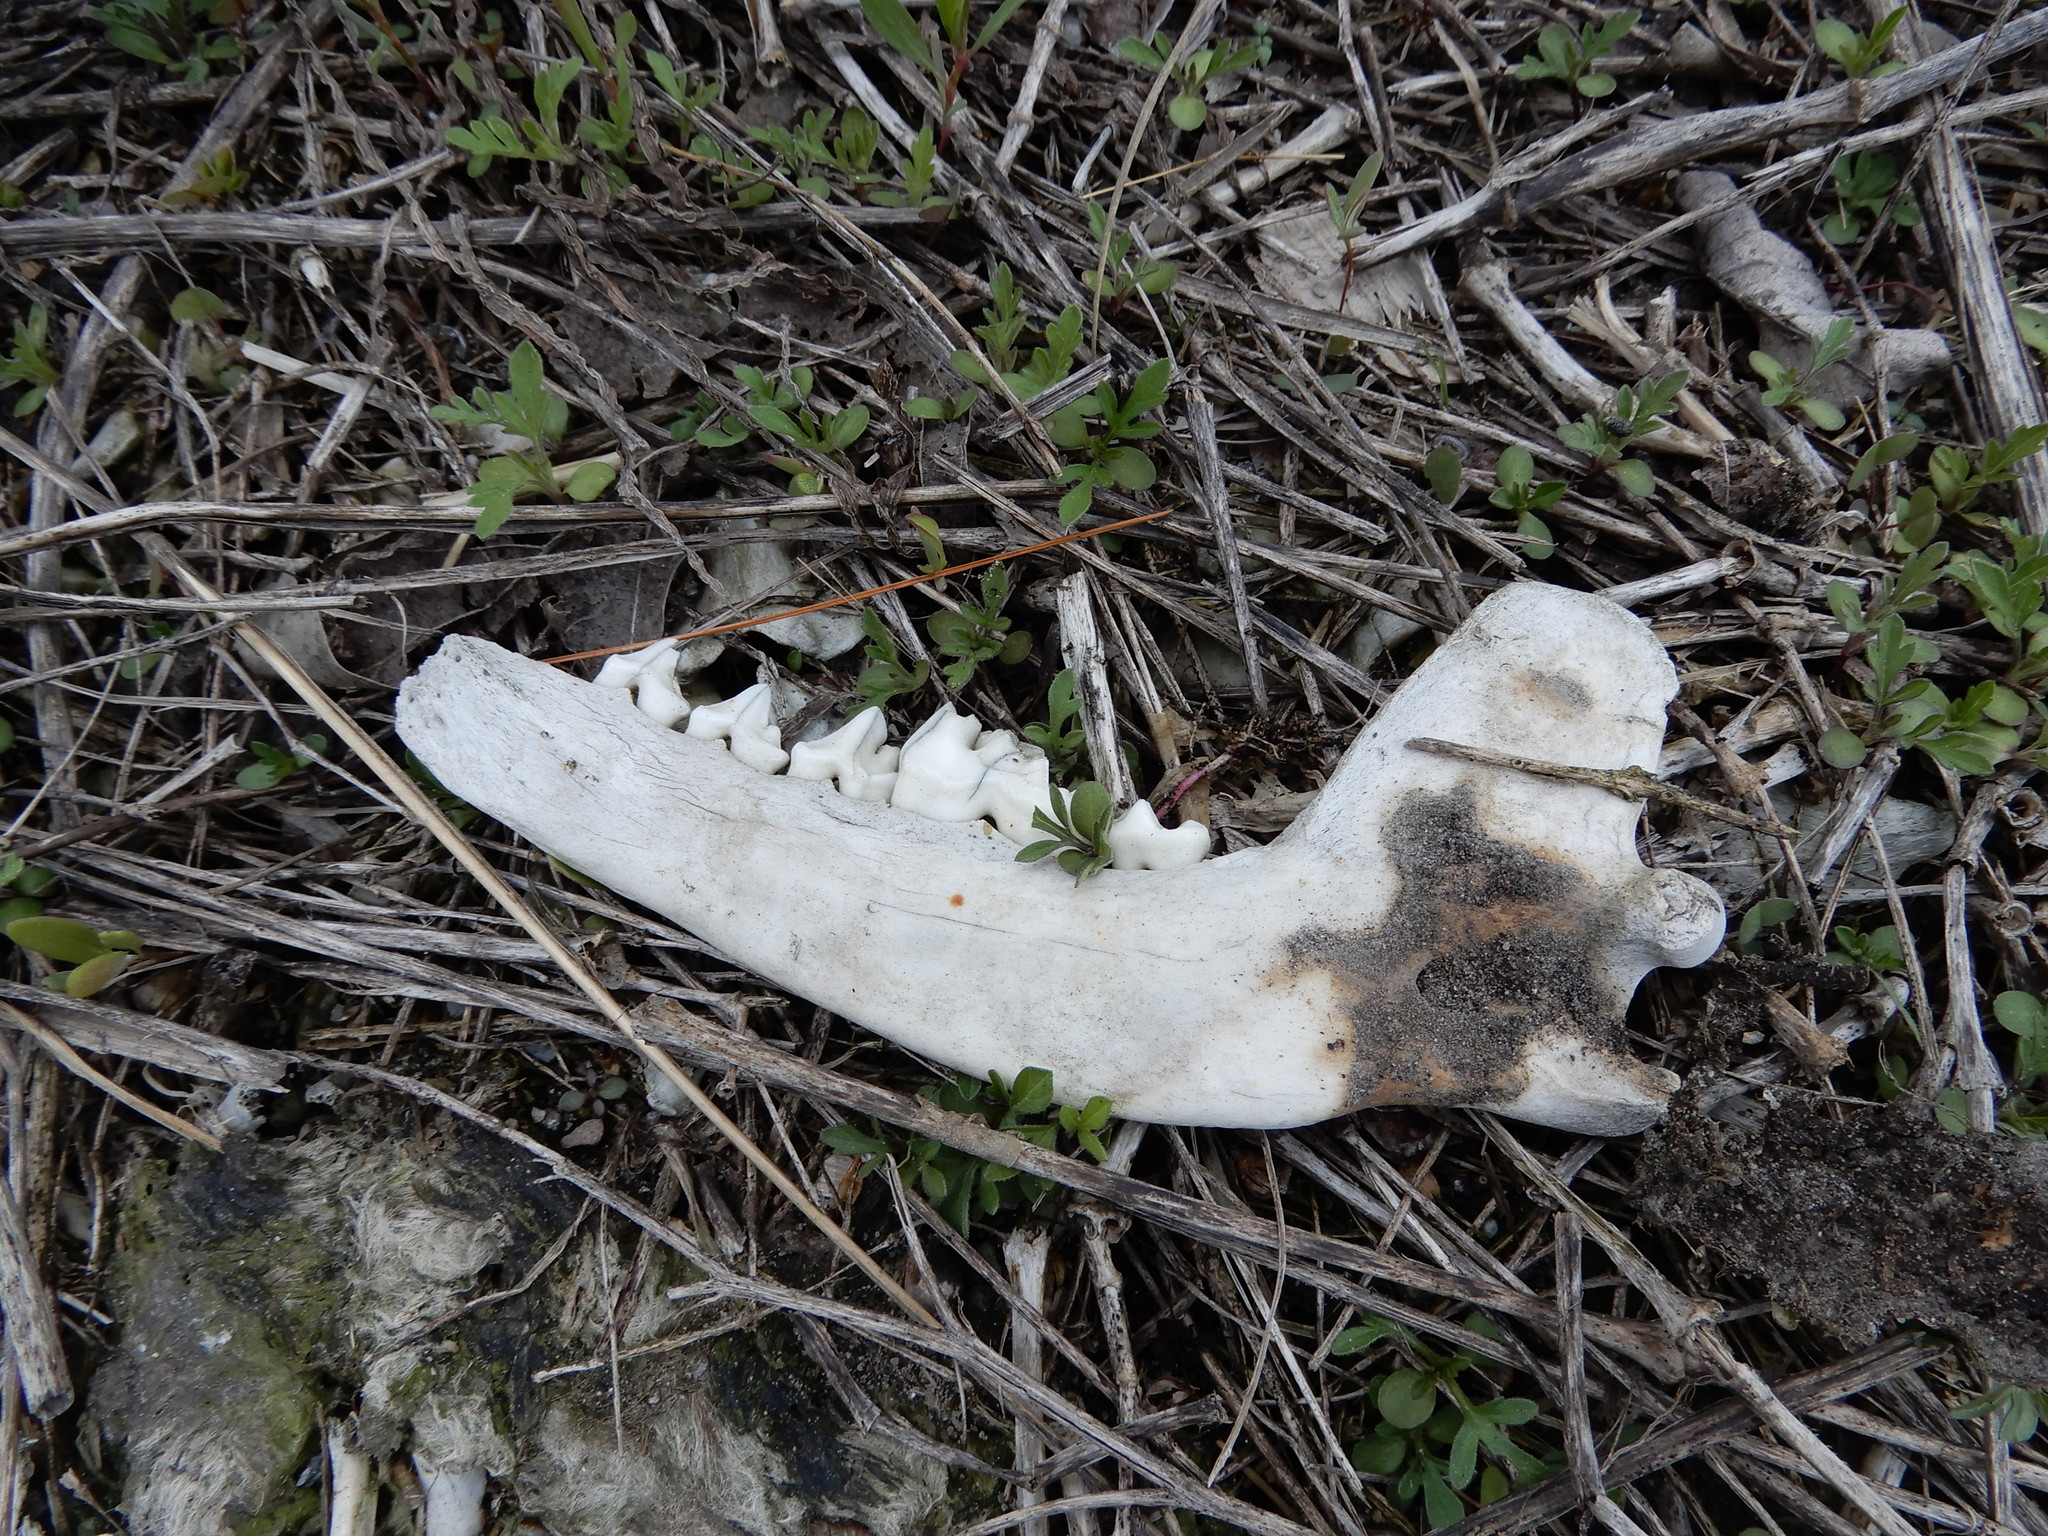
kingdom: Animalia
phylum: Chordata
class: Mammalia
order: Carnivora
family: Procyonidae
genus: Procyon
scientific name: Procyon lotor
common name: Raccoon
